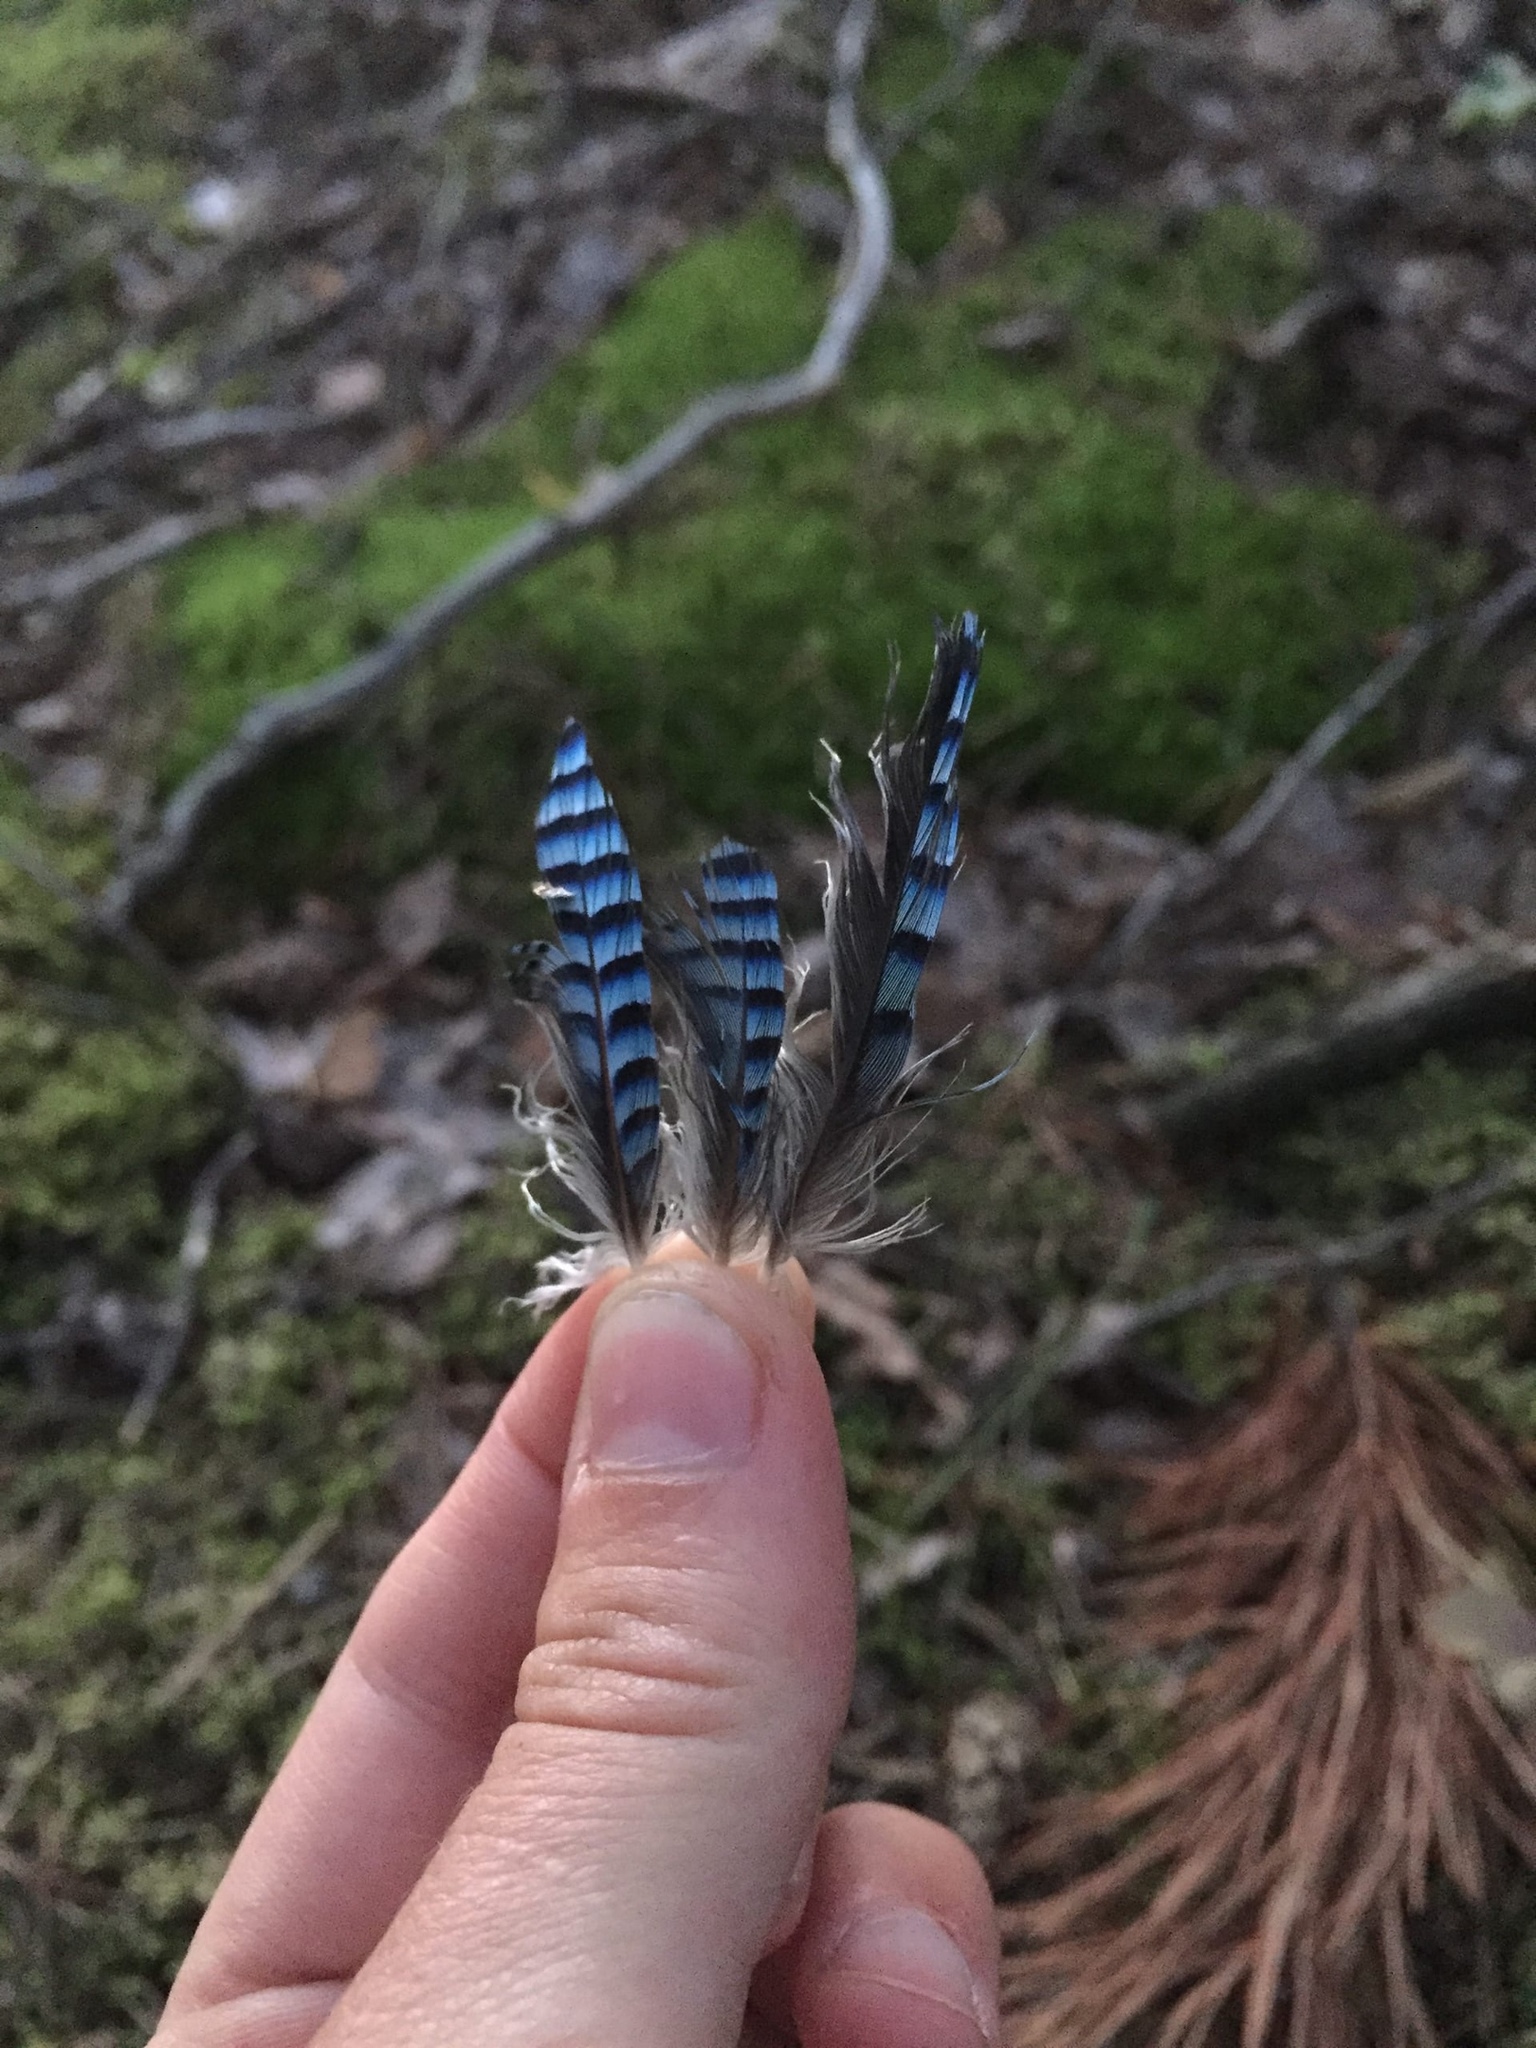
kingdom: Animalia
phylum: Chordata
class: Aves
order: Passeriformes
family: Corvidae
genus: Garrulus
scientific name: Garrulus glandarius
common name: Eurasian jay
